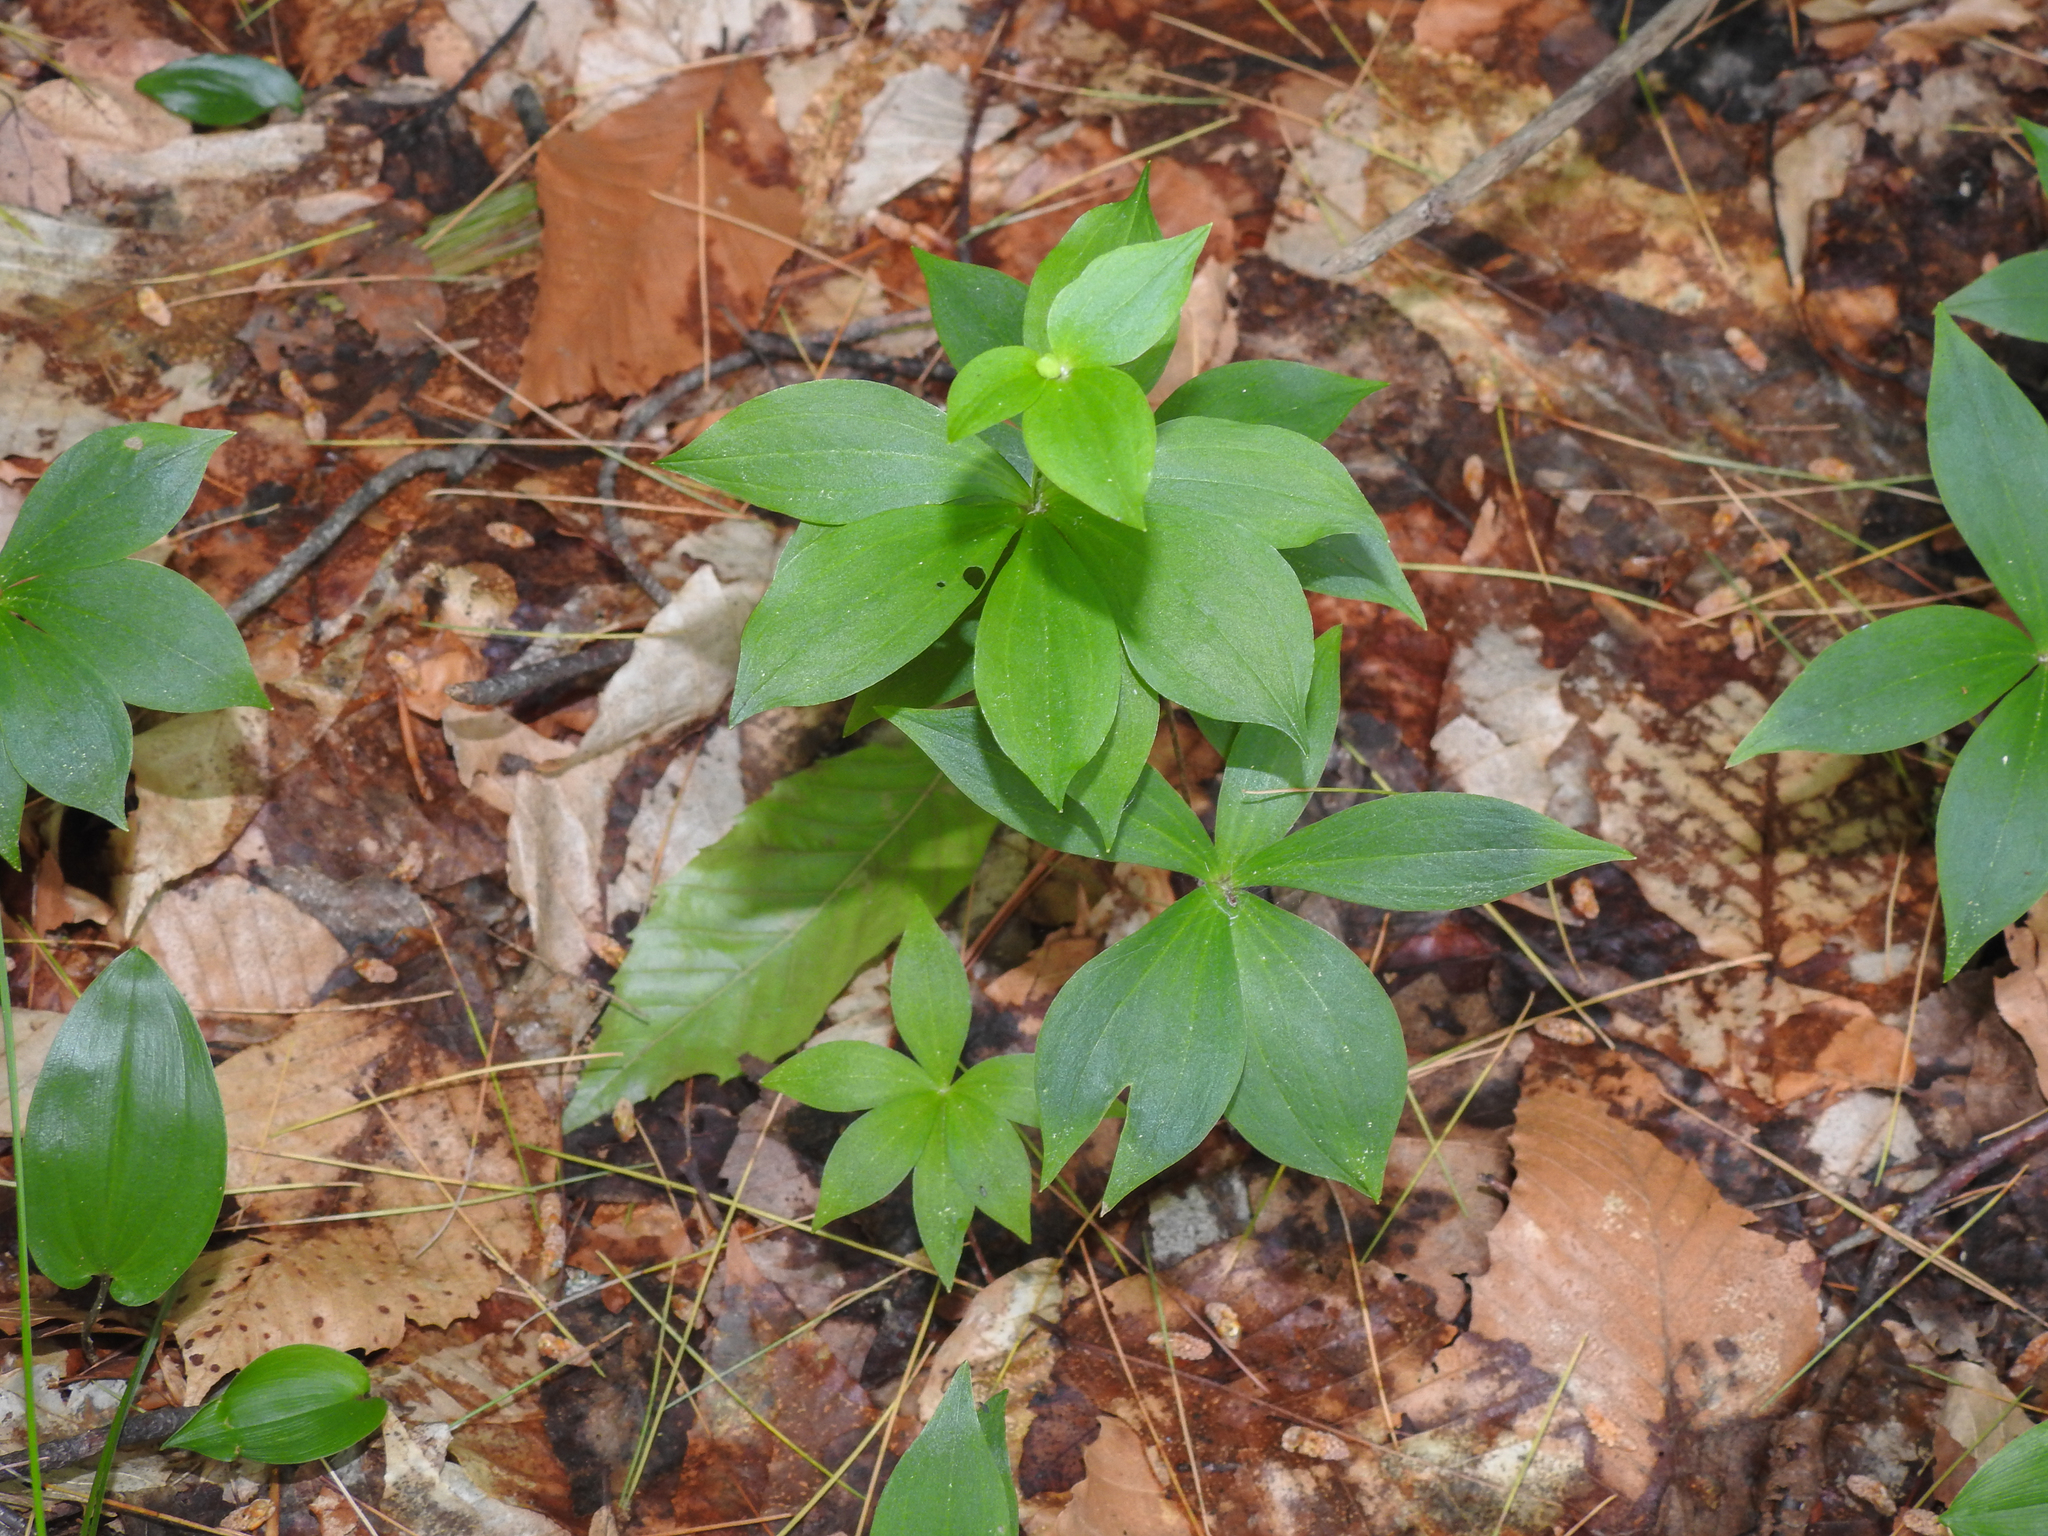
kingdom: Plantae
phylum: Tracheophyta
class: Liliopsida
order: Liliales
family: Liliaceae
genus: Medeola
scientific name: Medeola virginiana
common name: Indian cucumber-root
